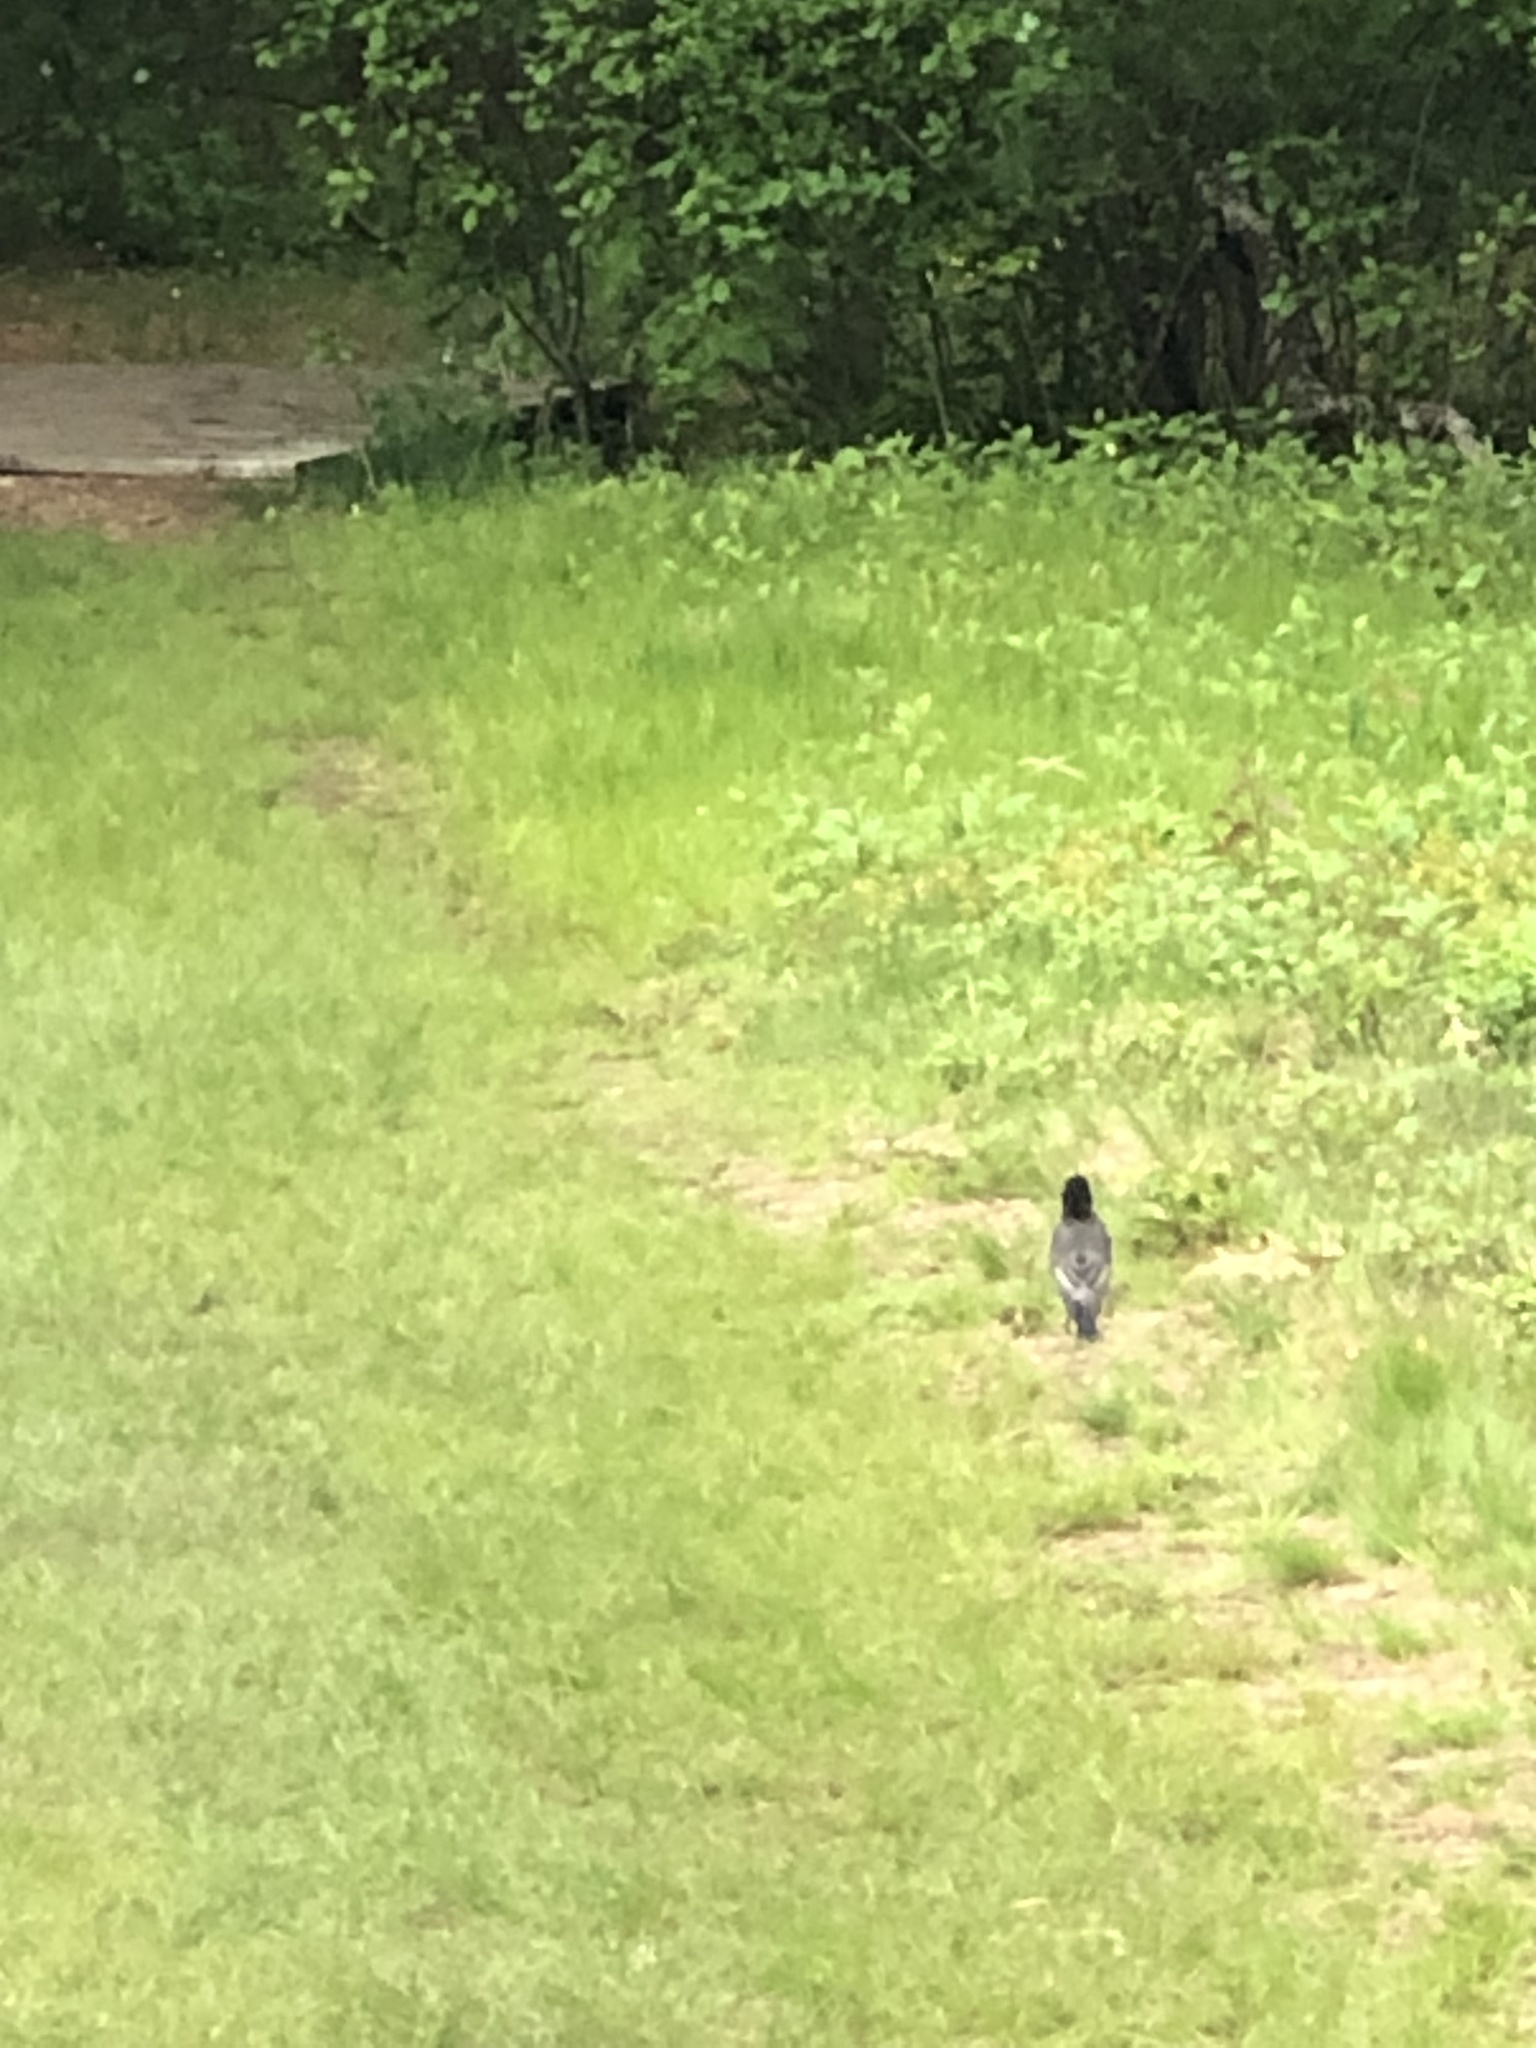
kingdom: Animalia
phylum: Chordata
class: Aves
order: Passeriformes
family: Turdidae
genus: Turdus
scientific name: Turdus migratorius
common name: American robin
